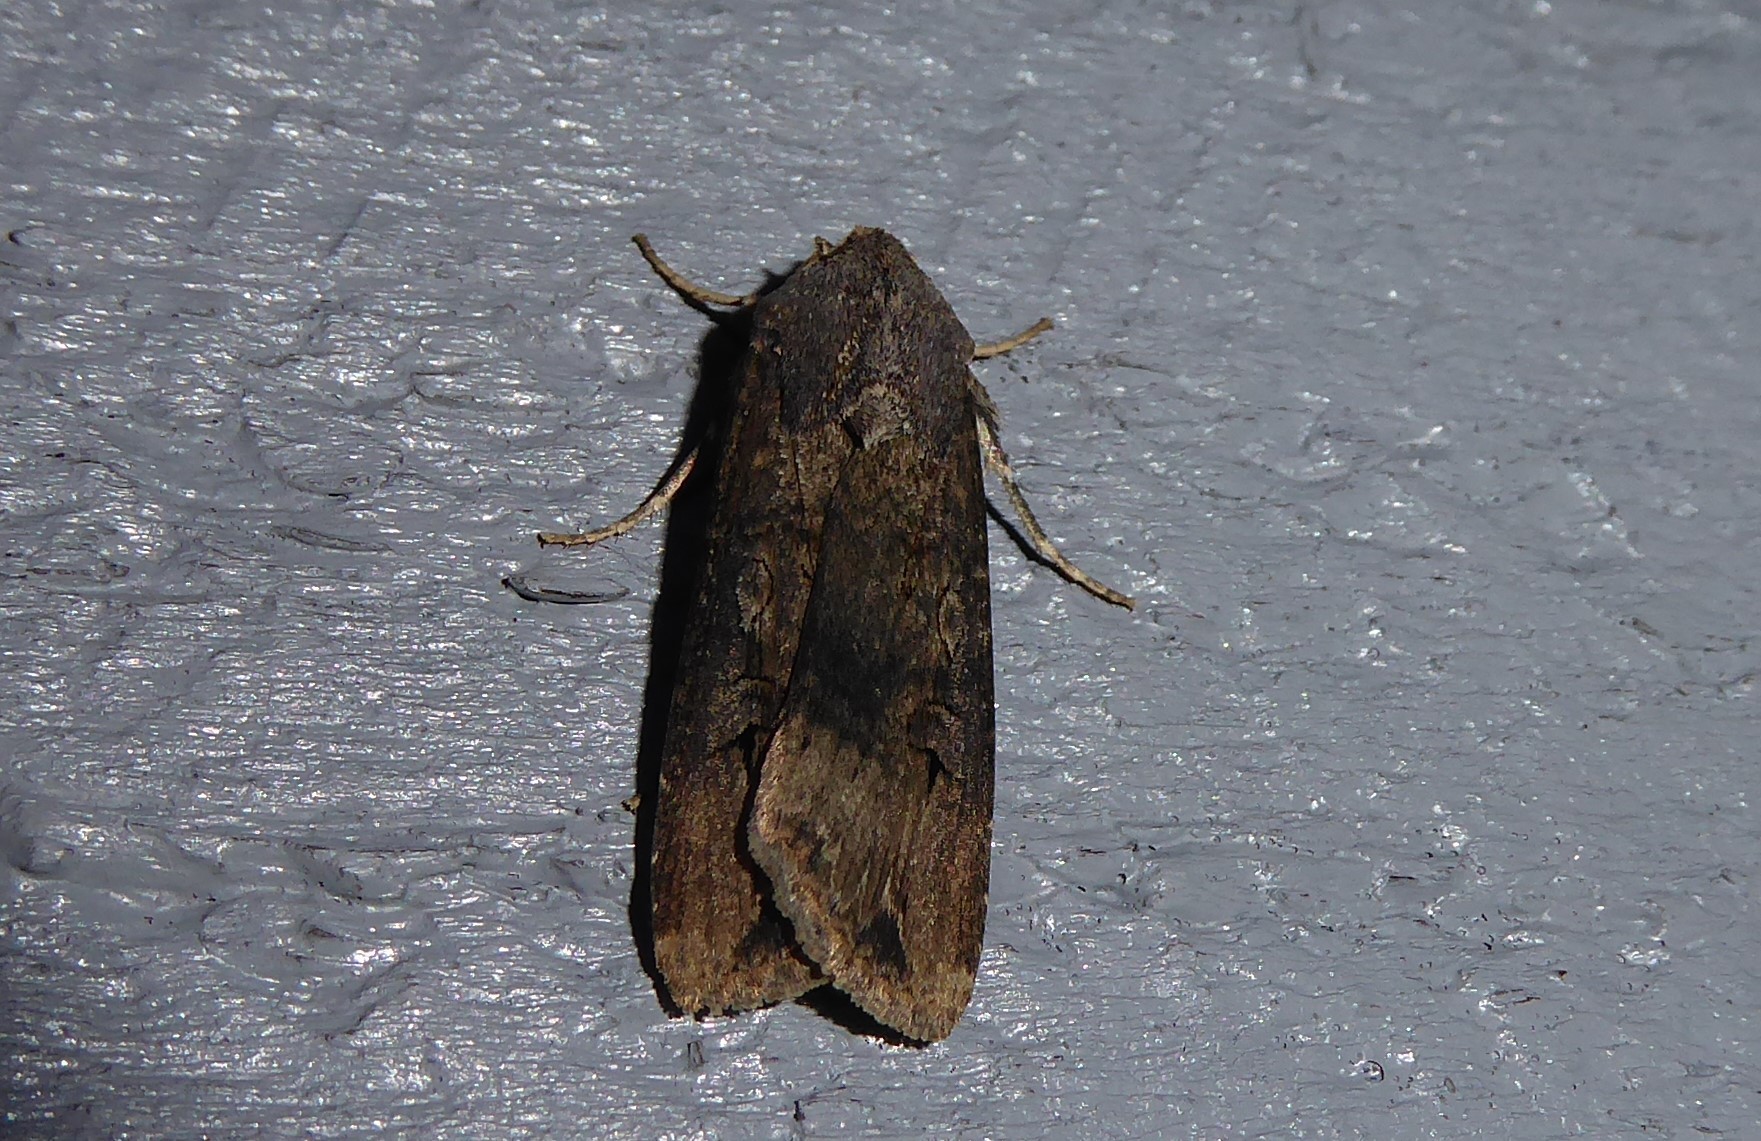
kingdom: Animalia
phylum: Arthropoda
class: Insecta
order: Lepidoptera
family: Noctuidae
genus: Agrotis
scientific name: Agrotis ipsilon
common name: Dark sword-grass
